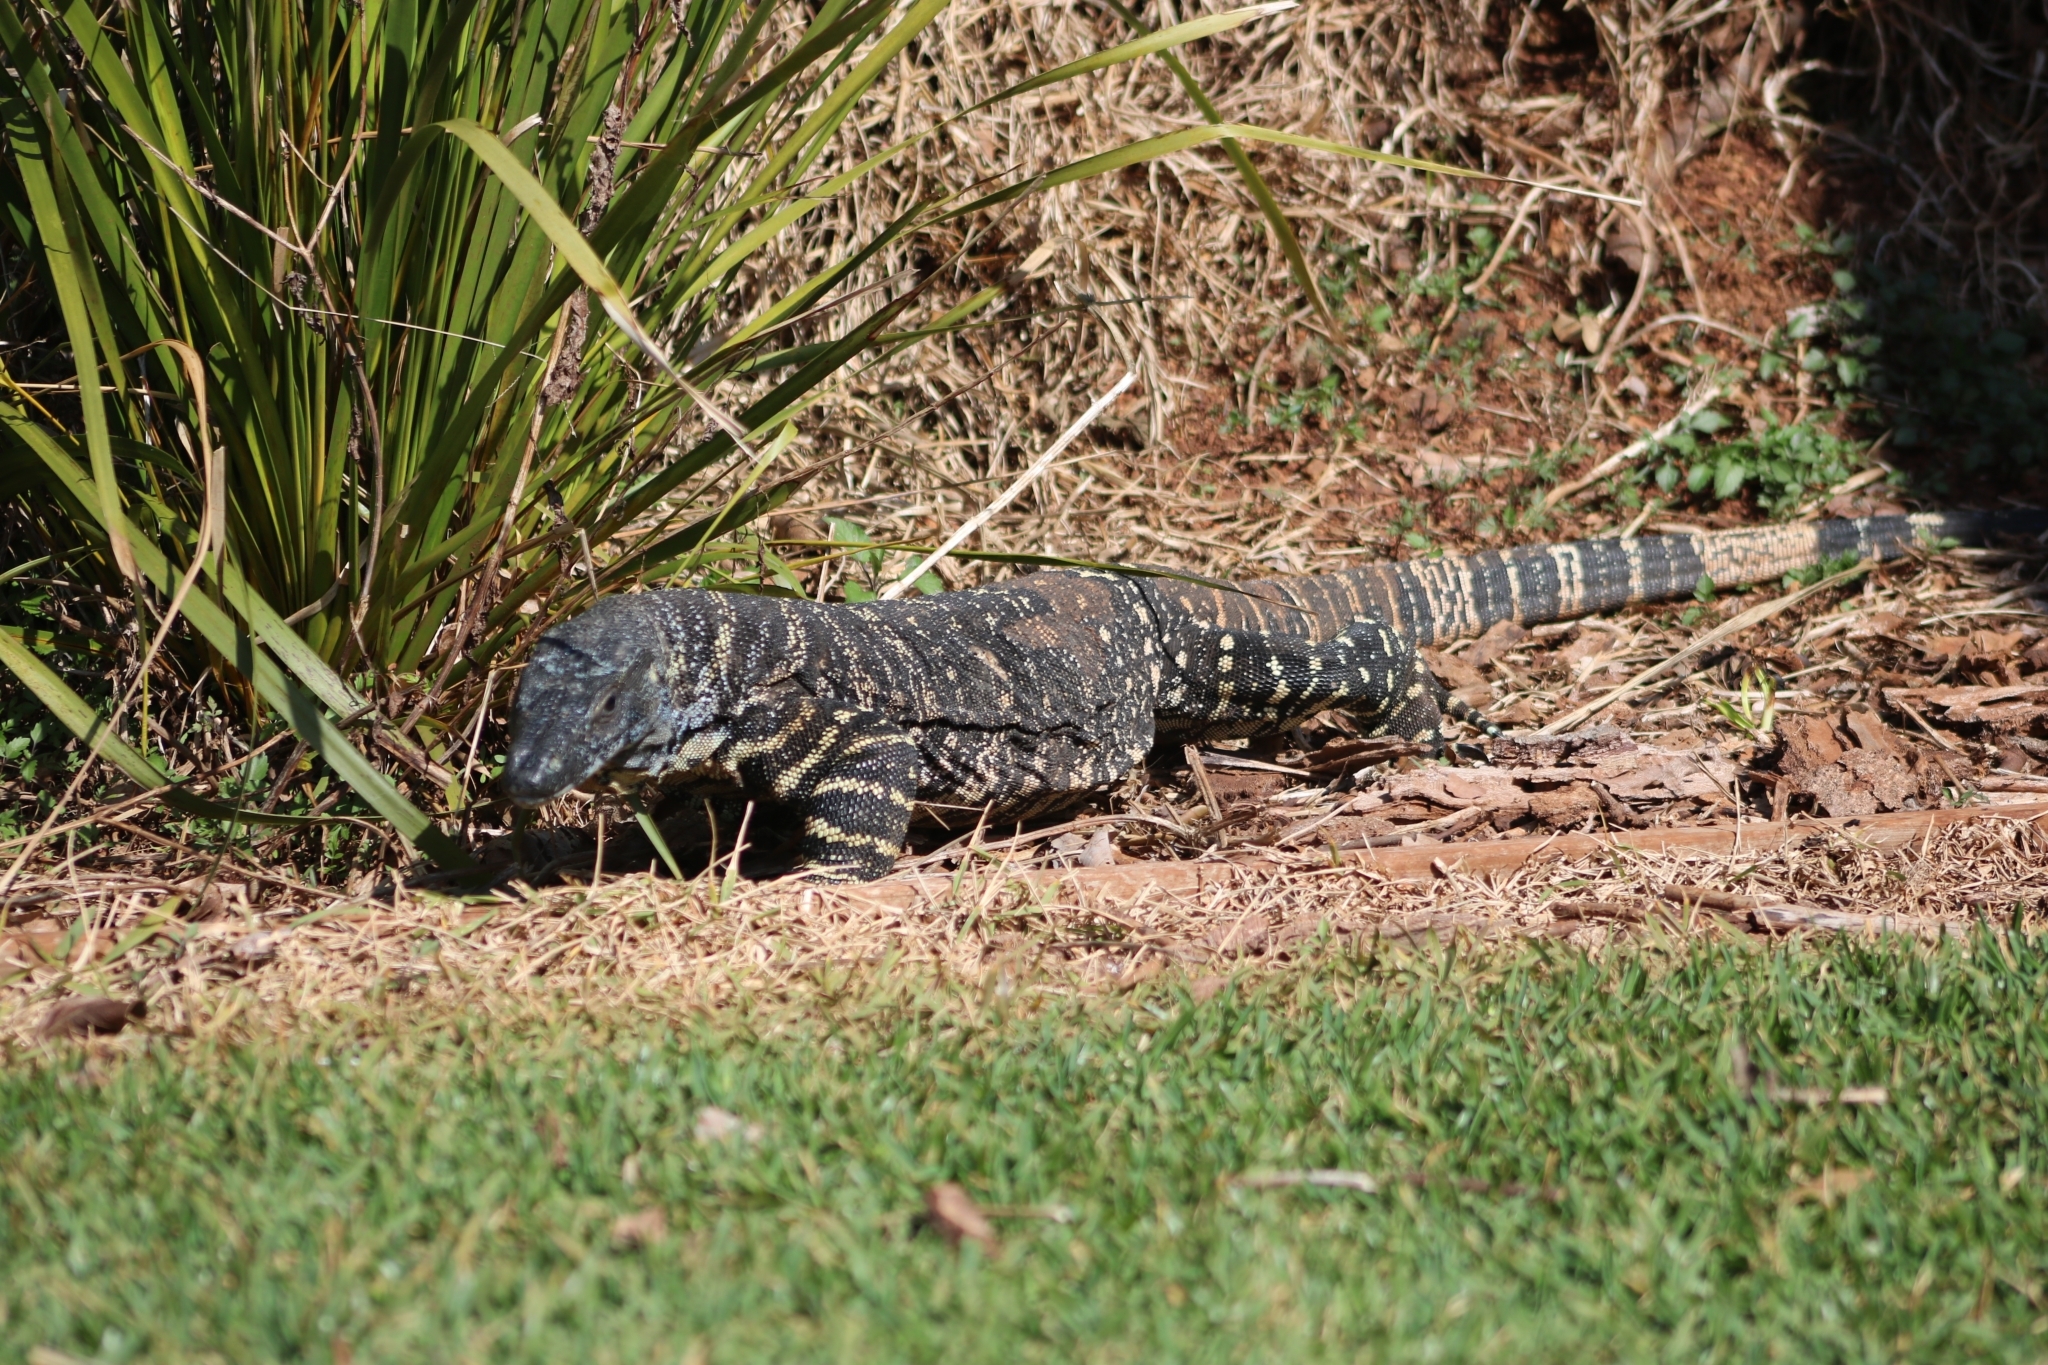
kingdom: Animalia
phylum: Chordata
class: Squamata
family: Varanidae
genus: Varanus
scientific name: Varanus varius
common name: Lace monitor
